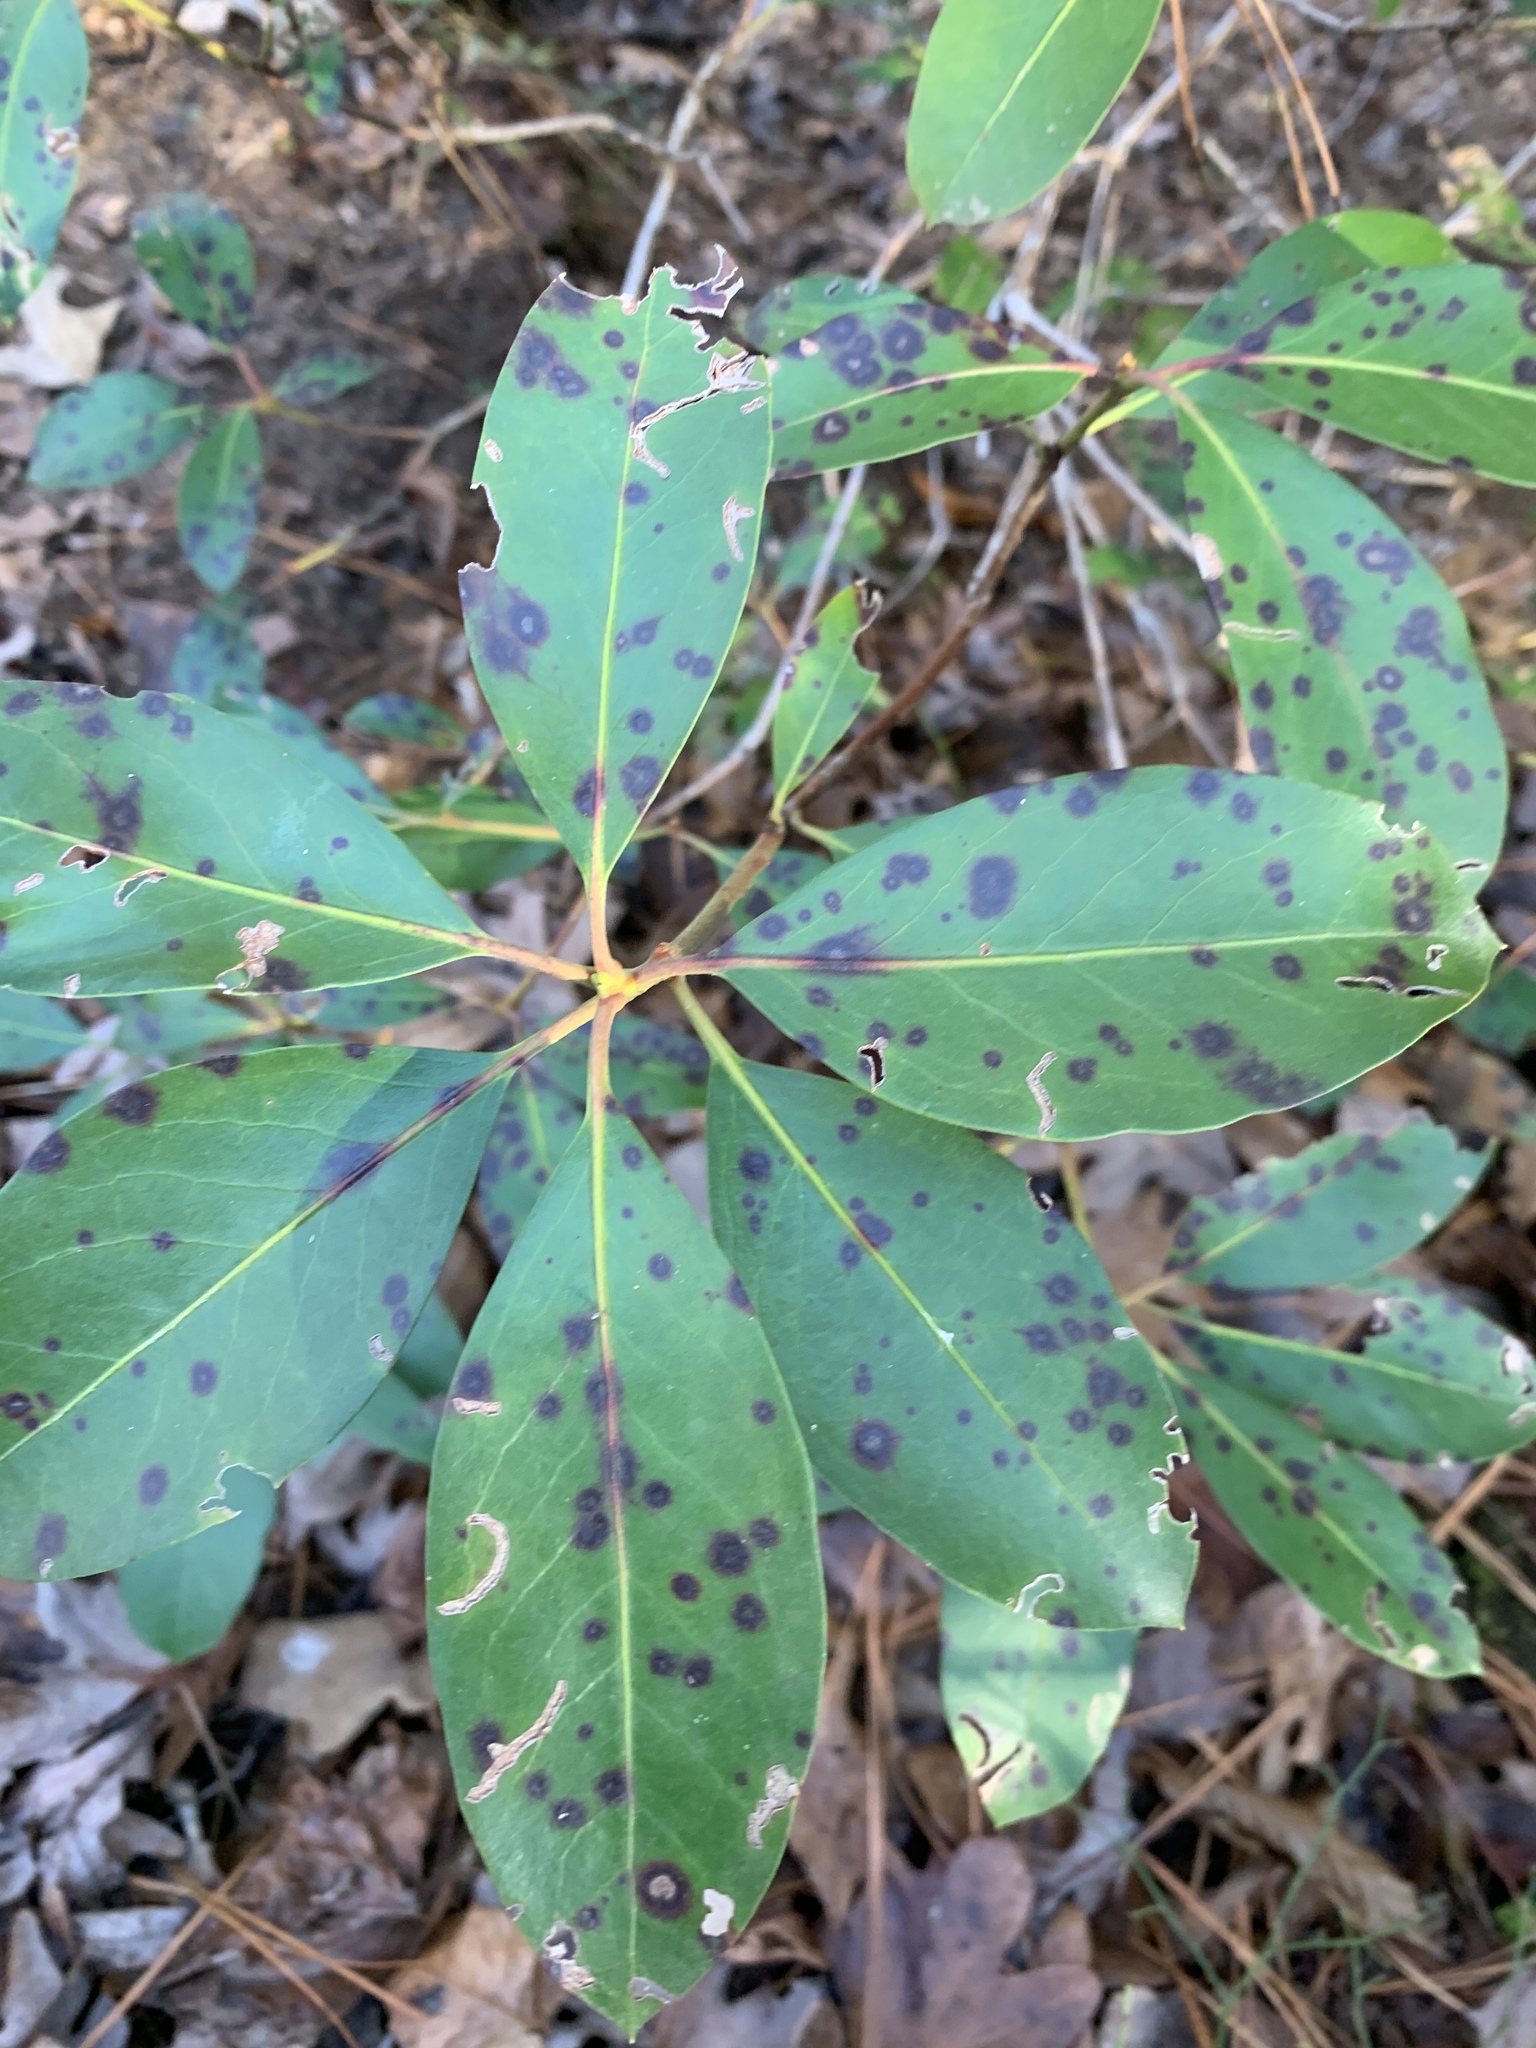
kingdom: Fungi
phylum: Ascomycota
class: Dothideomycetes
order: Mycosphaerellales
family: Mycosphaerellaceae
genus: Mycosphaerella
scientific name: Mycosphaerella colorata
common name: Mountain laurel leaf spot
